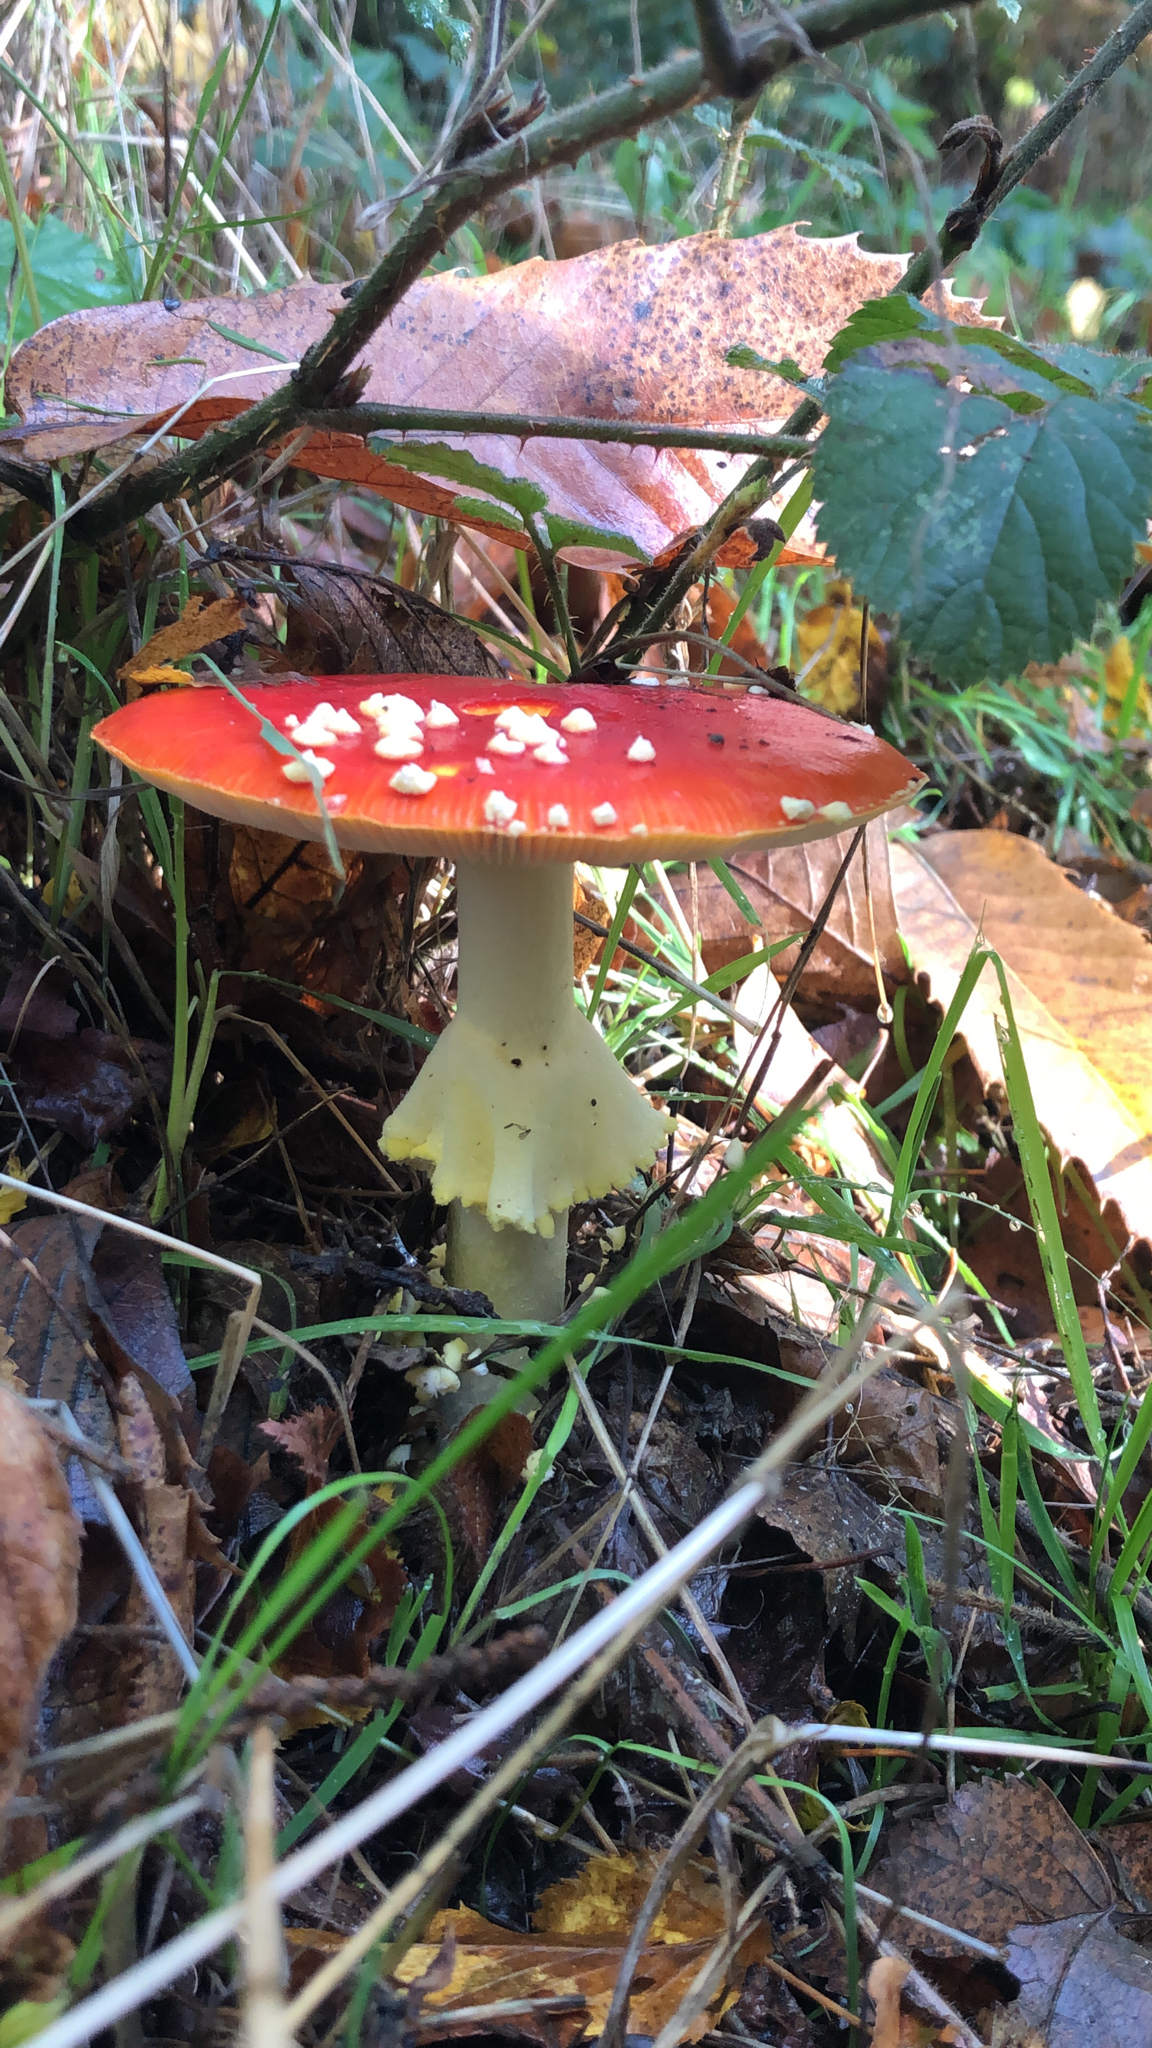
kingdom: Fungi
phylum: Basidiomycota
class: Agaricomycetes
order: Agaricales
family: Amanitaceae
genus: Amanita
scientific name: Amanita muscaria
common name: Fly agaric
